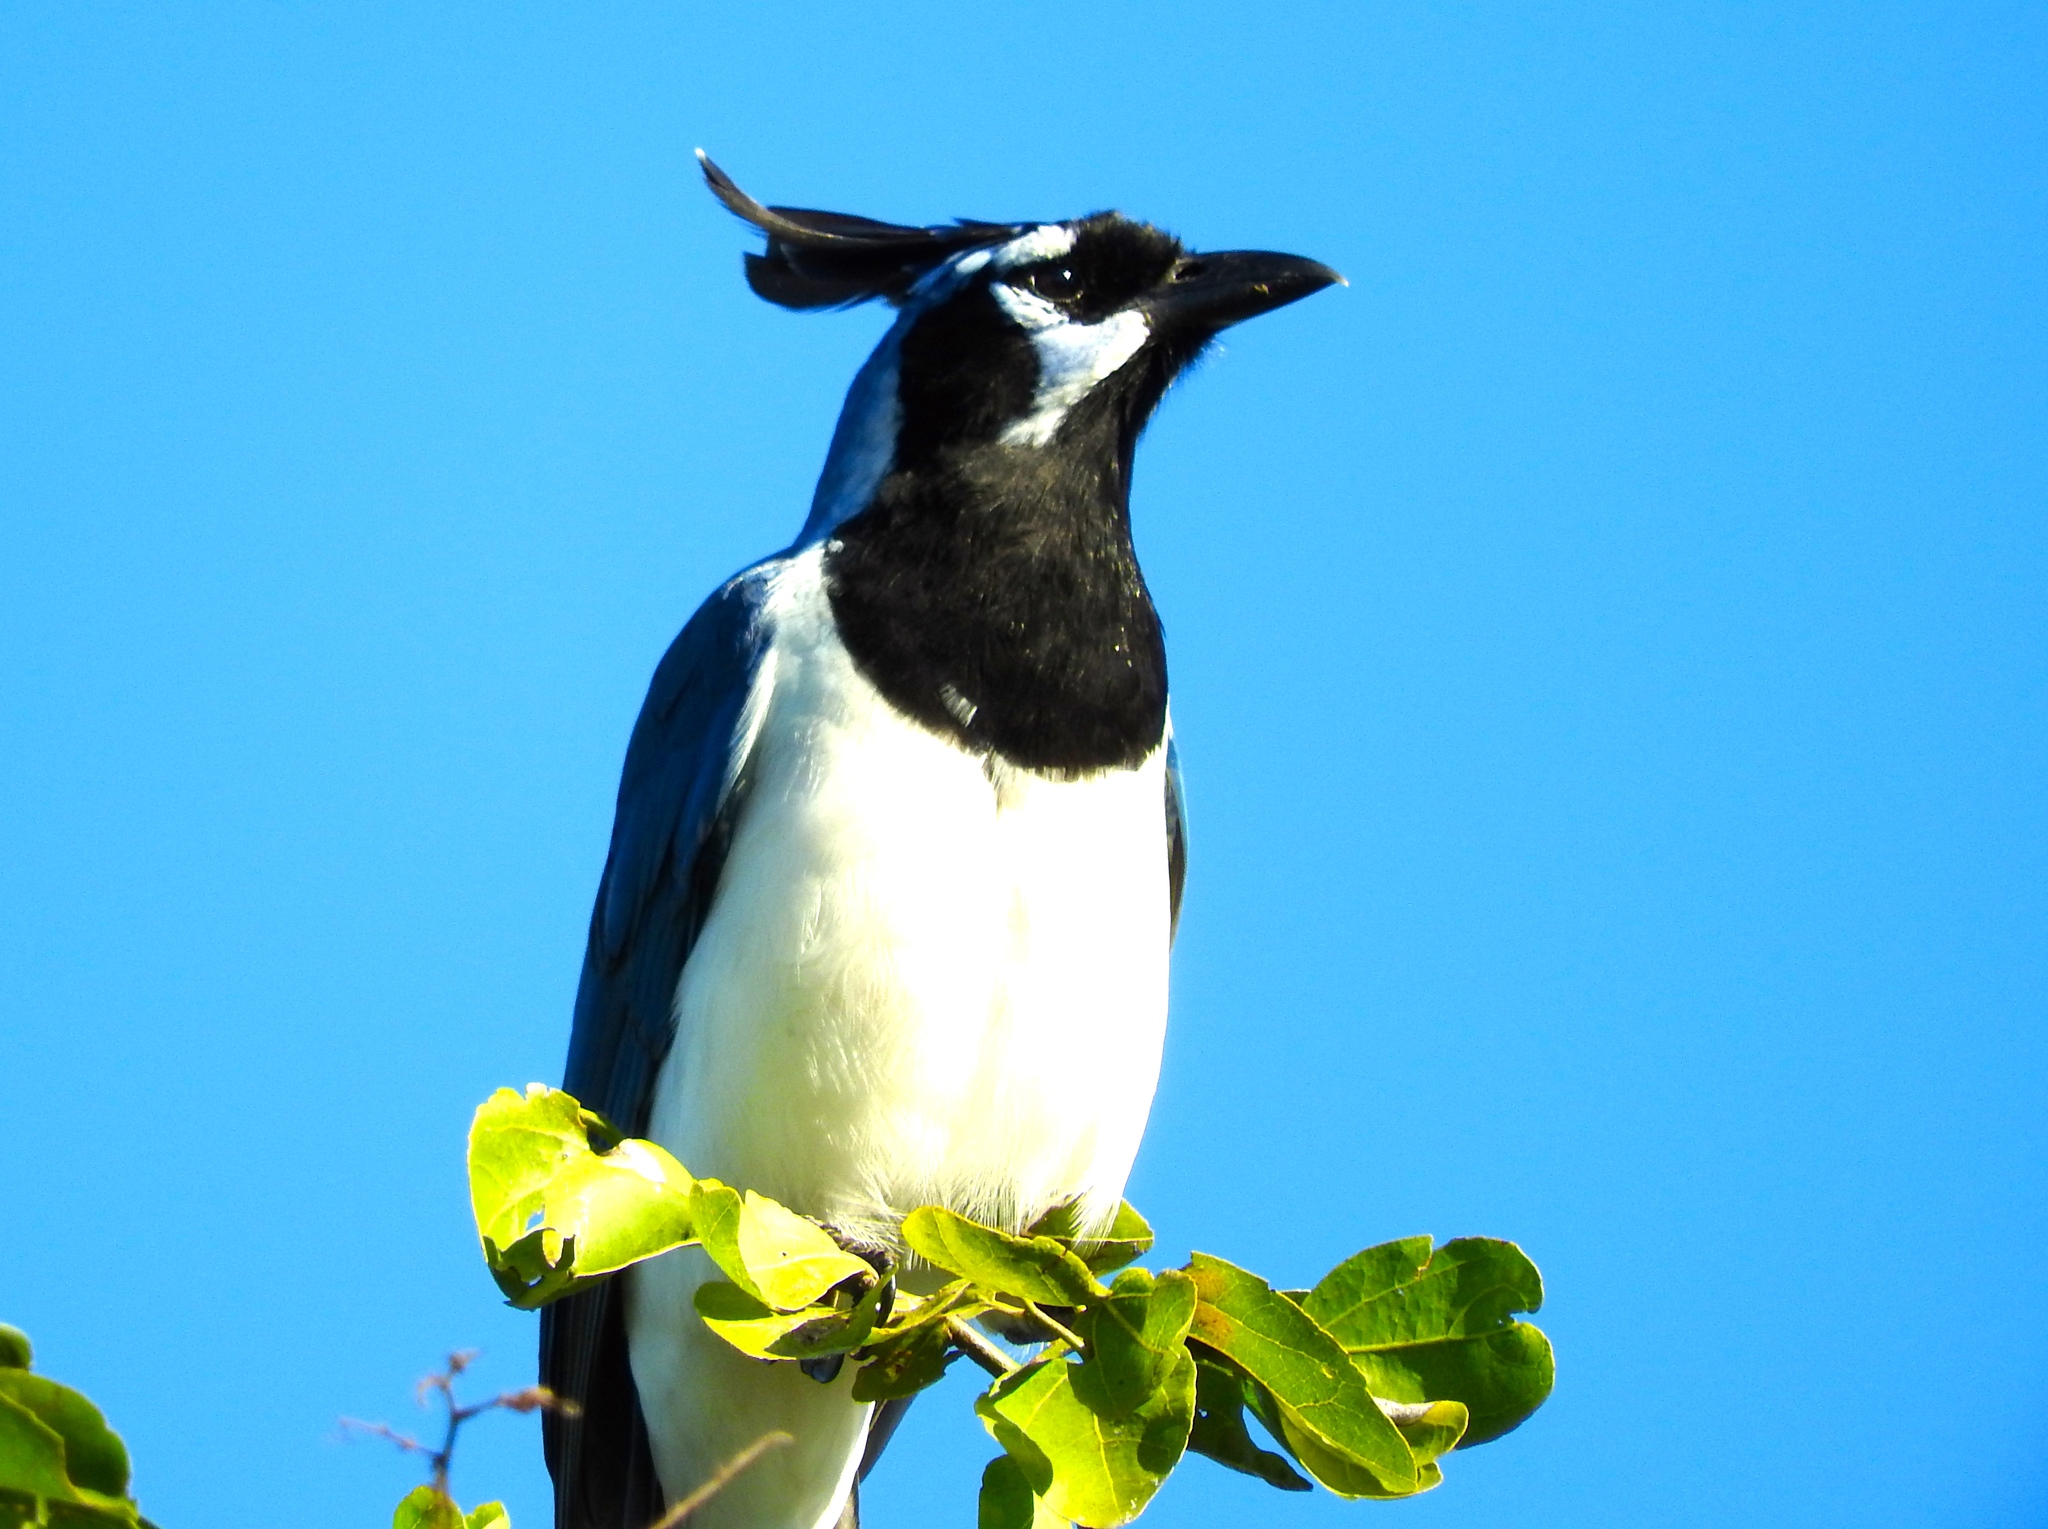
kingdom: Animalia
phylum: Chordata
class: Aves
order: Passeriformes
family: Corvidae
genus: Calocitta
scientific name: Calocitta colliei
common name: Black-throated magpie-jay
